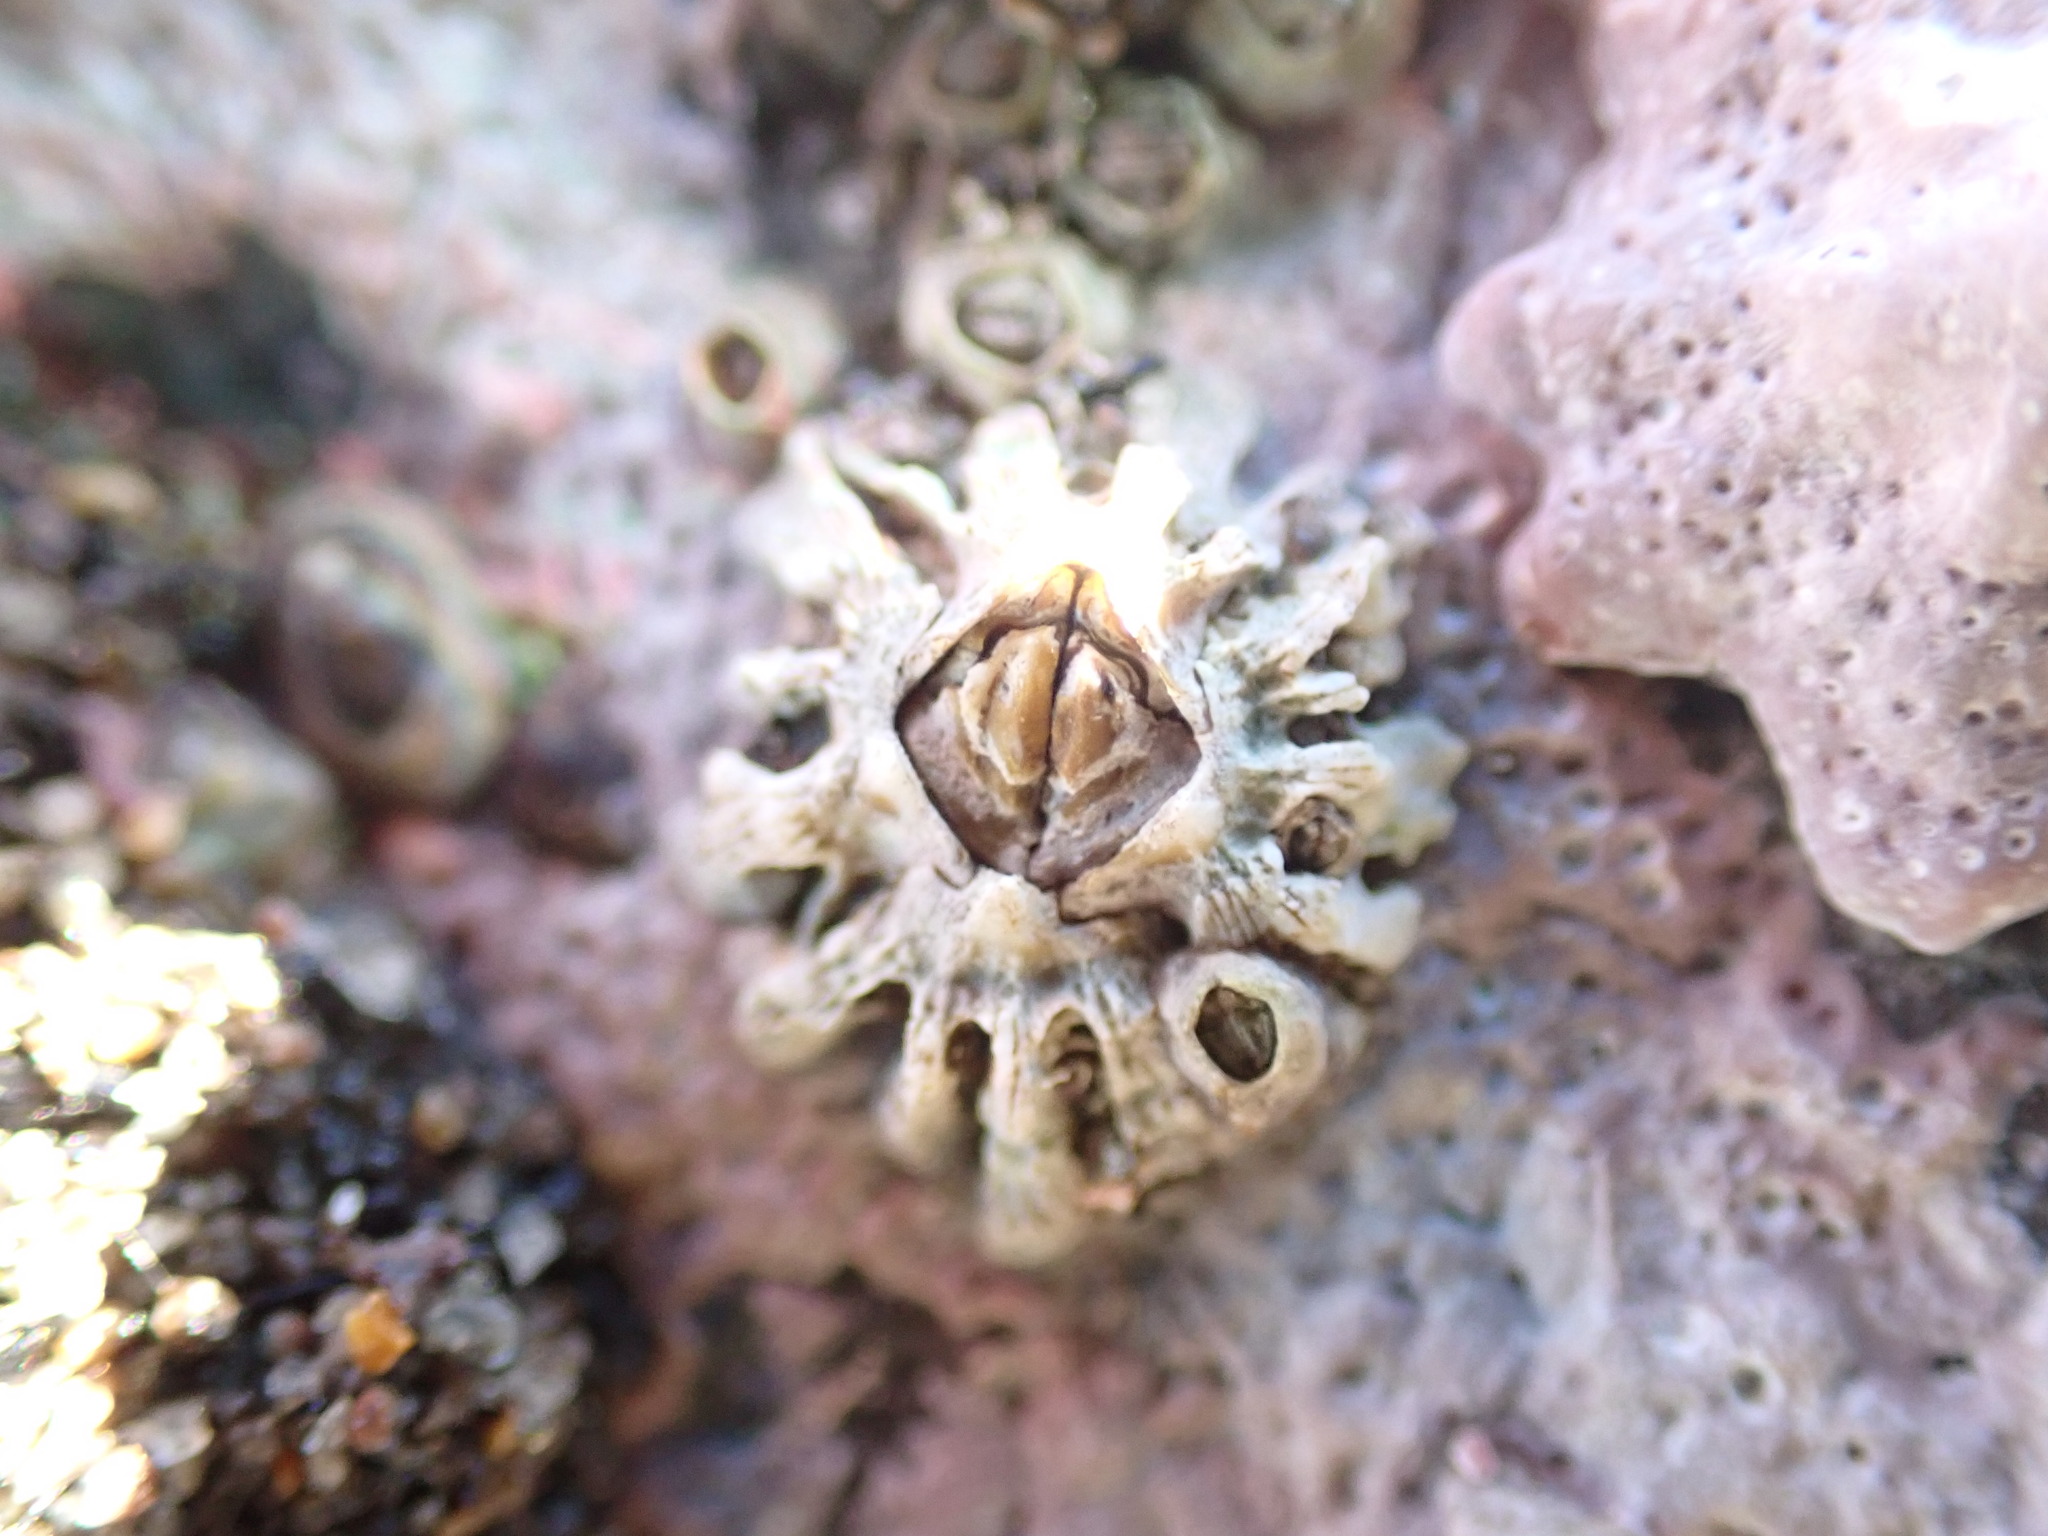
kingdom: Animalia
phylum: Arthropoda
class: Maxillopoda
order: Sessilia
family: Tetraclitidae
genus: Epopella
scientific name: Epopella plicata
